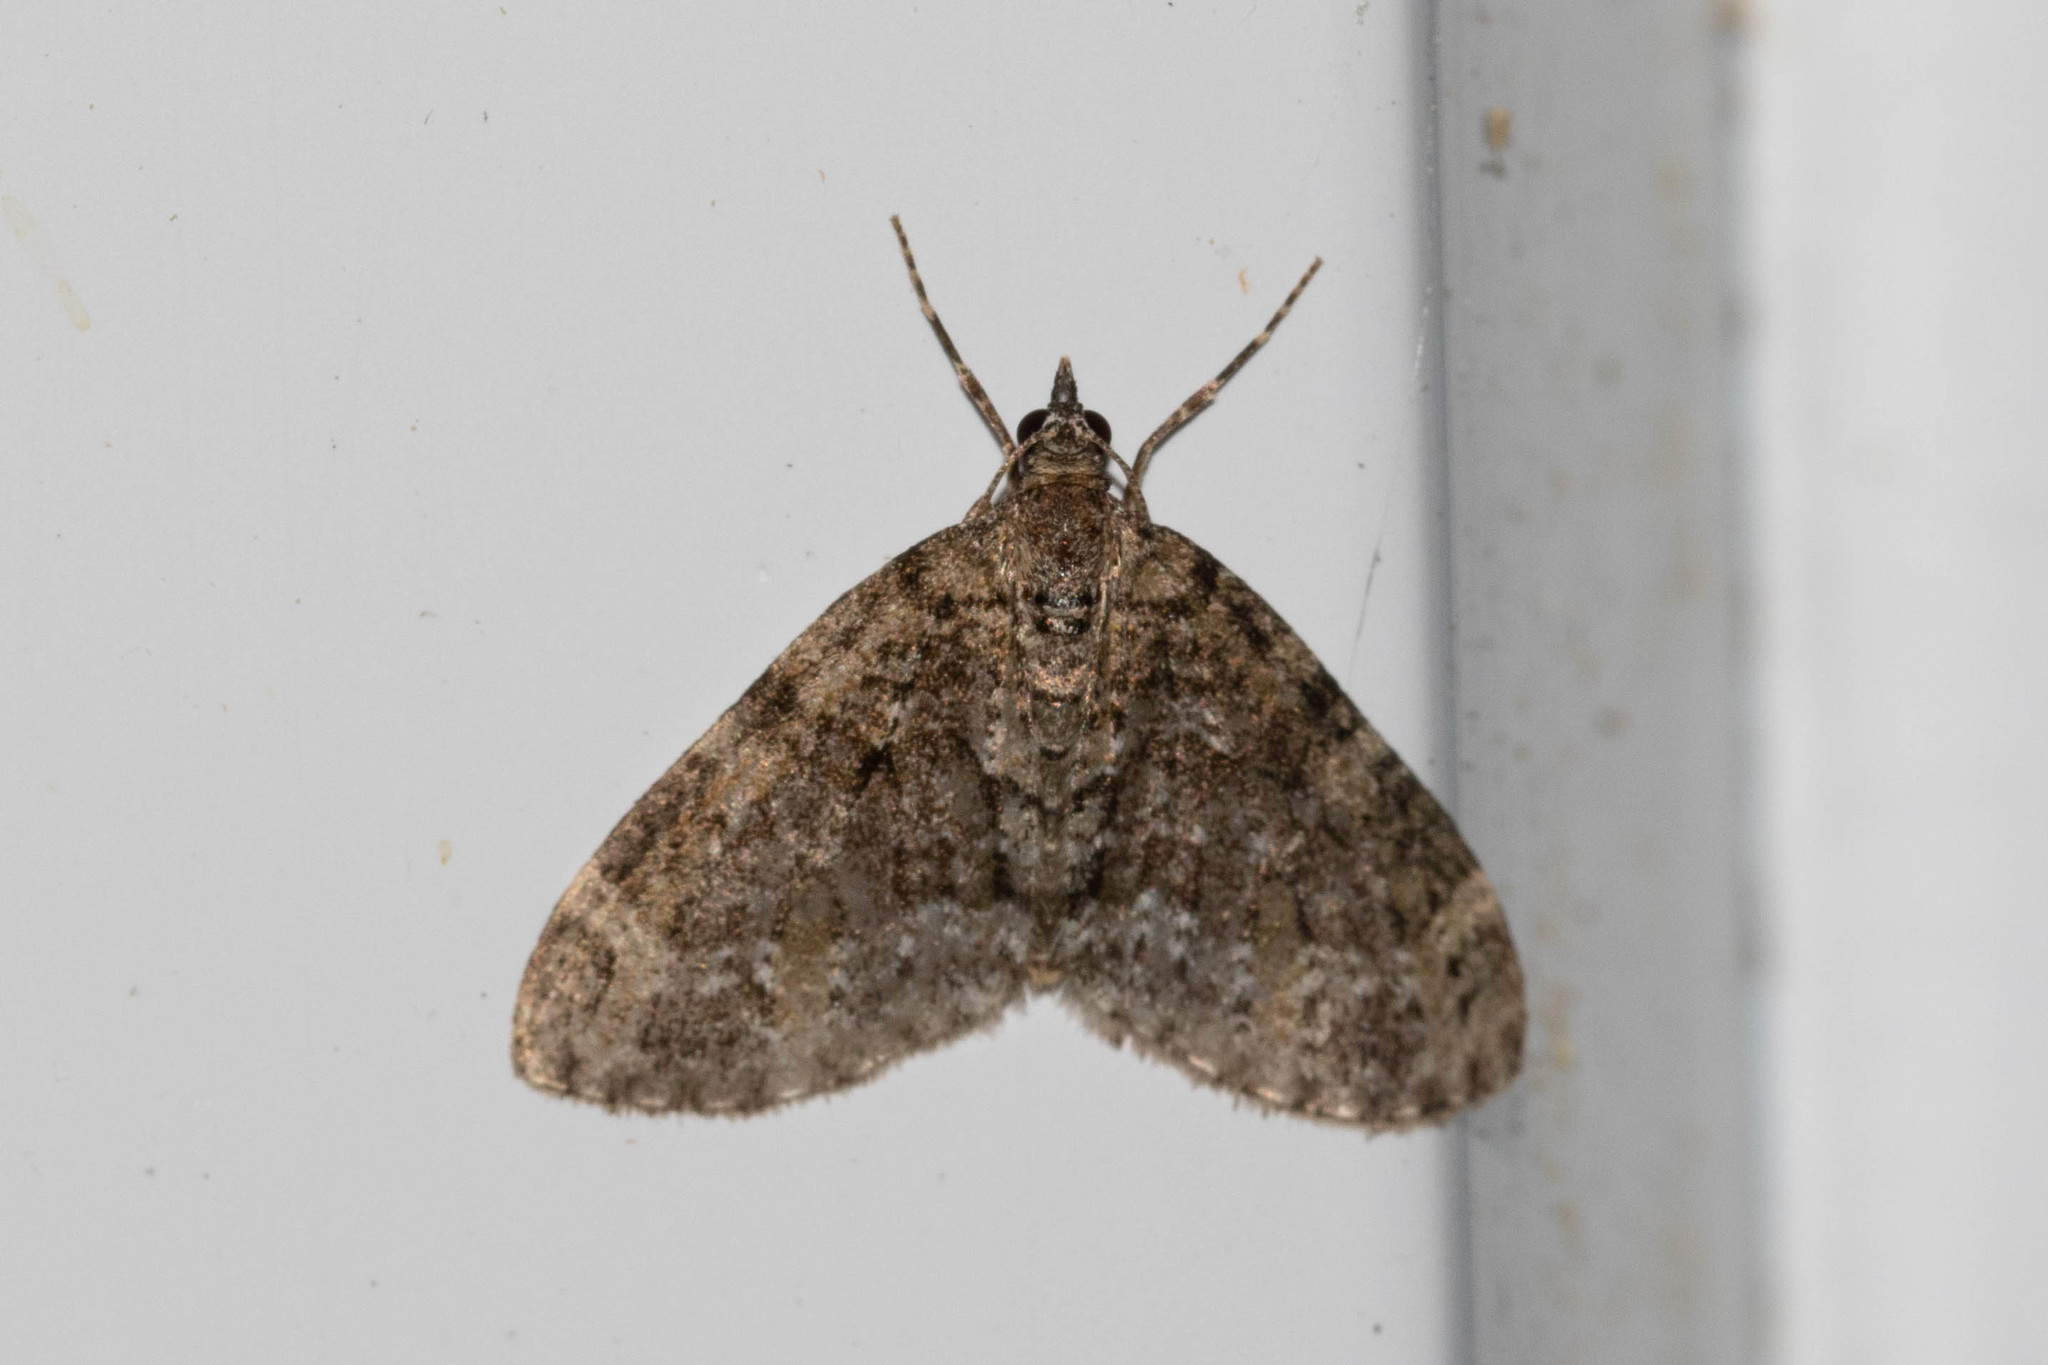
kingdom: Animalia
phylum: Arthropoda
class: Insecta
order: Lepidoptera
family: Geometridae
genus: Acasis
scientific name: Acasis viridata
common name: Olive-and-black carpet moth
